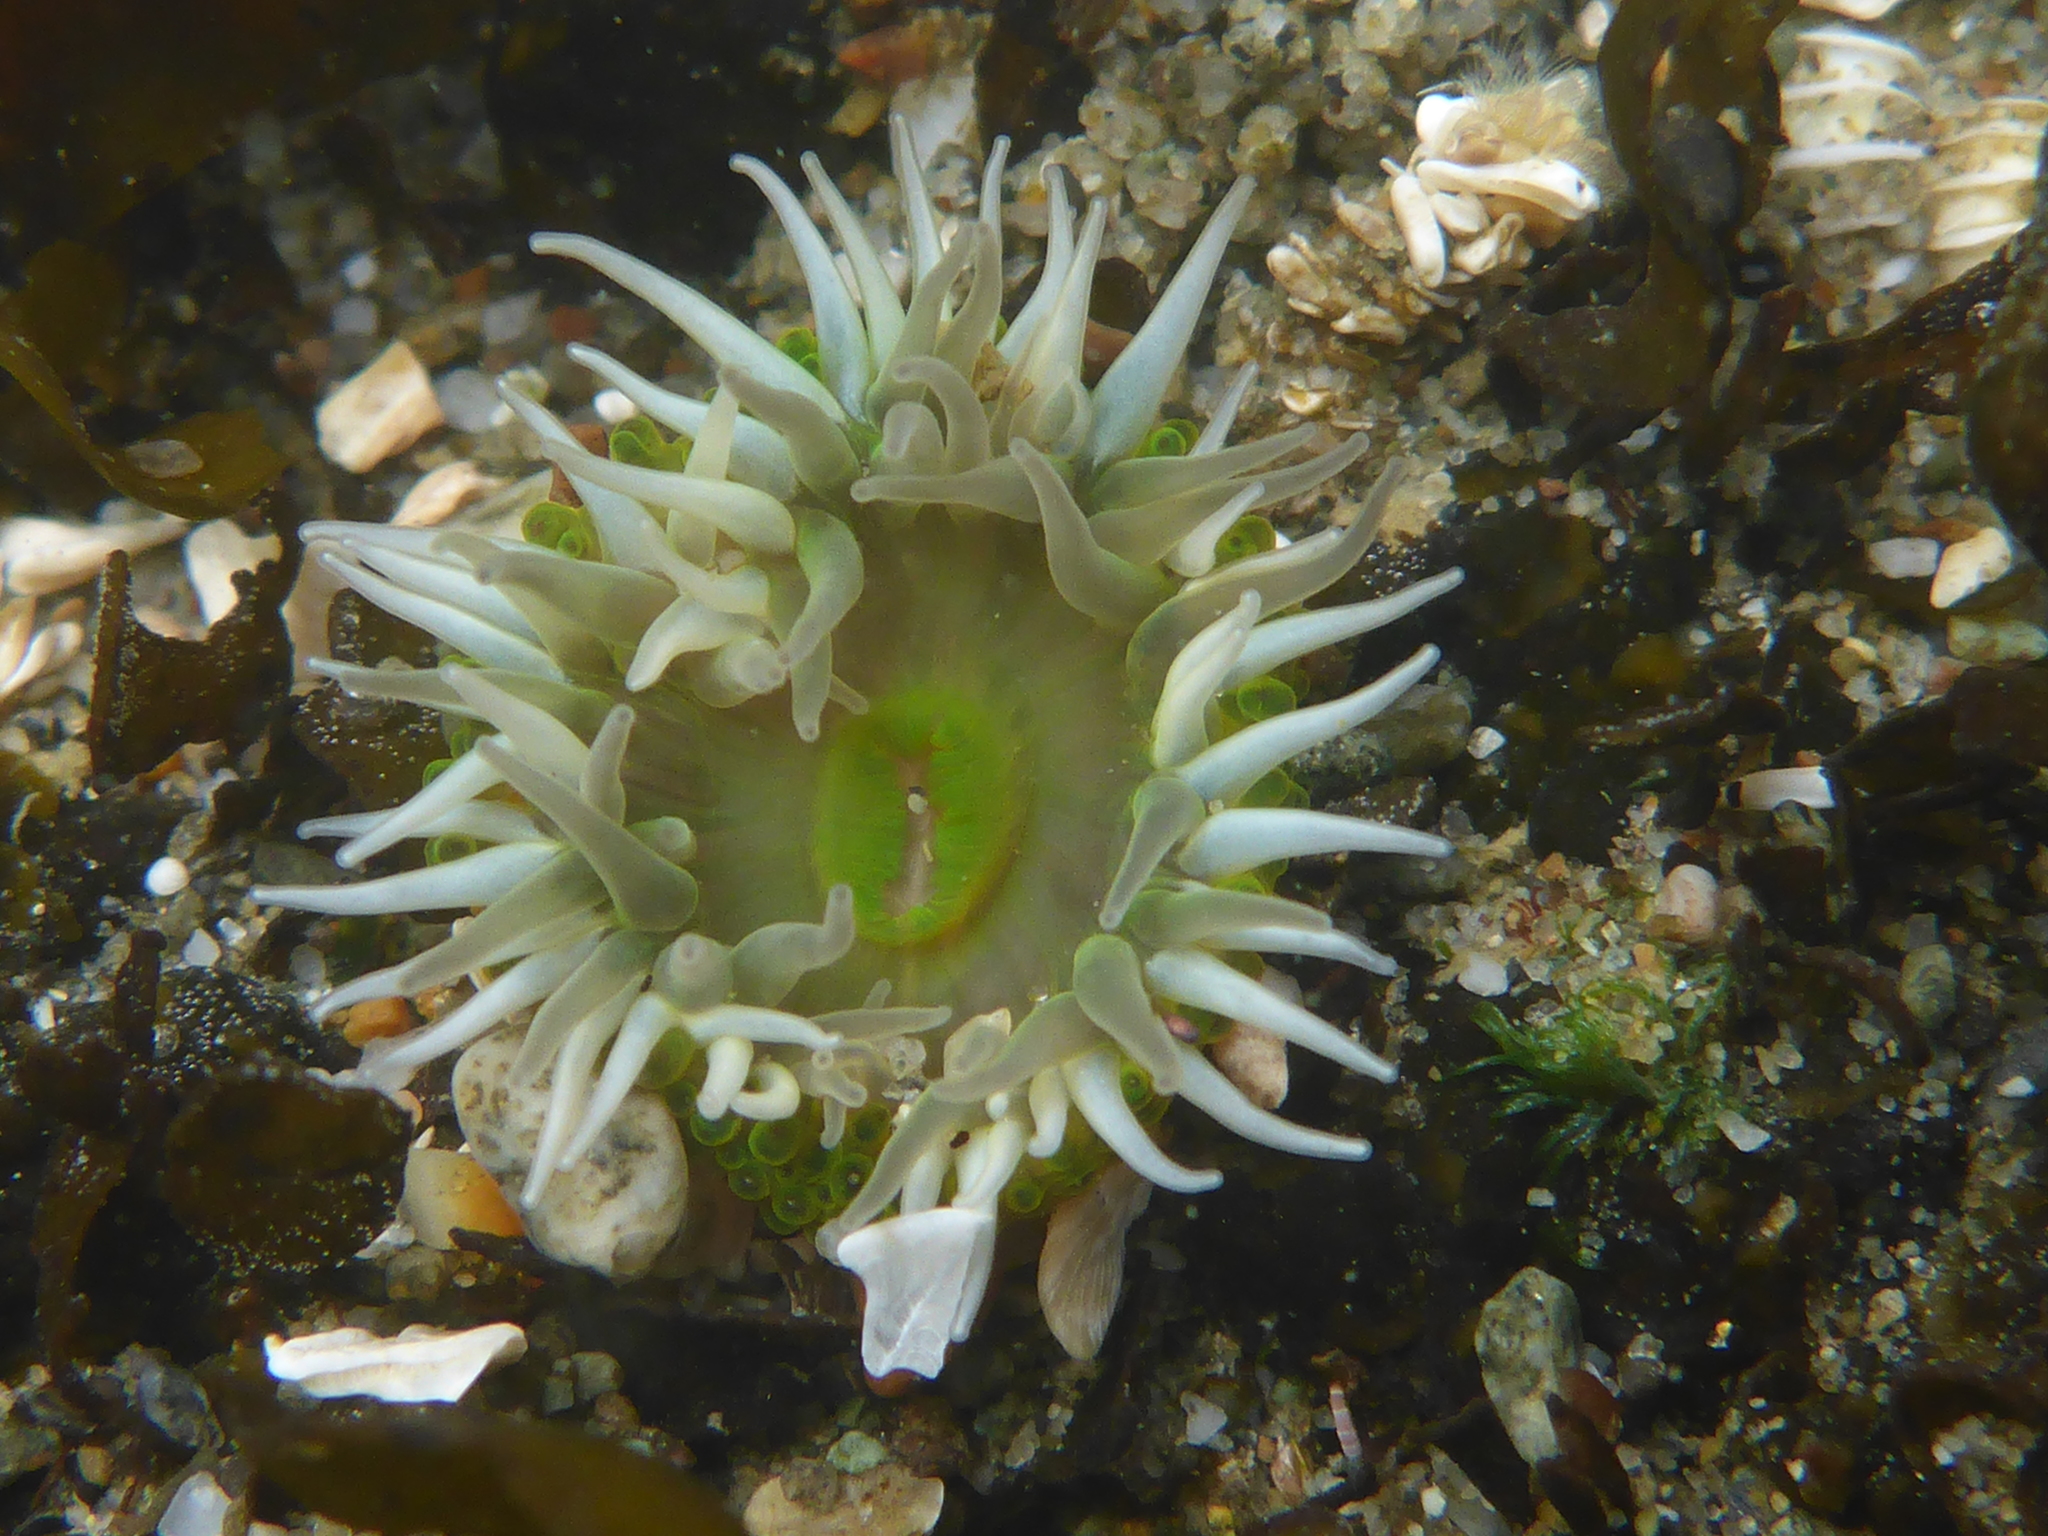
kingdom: Animalia
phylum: Cnidaria
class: Anthozoa
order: Actiniaria
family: Actiniidae
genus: Anthopleura
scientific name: Anthopleura xanthogrammica
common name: Giant green anemone
